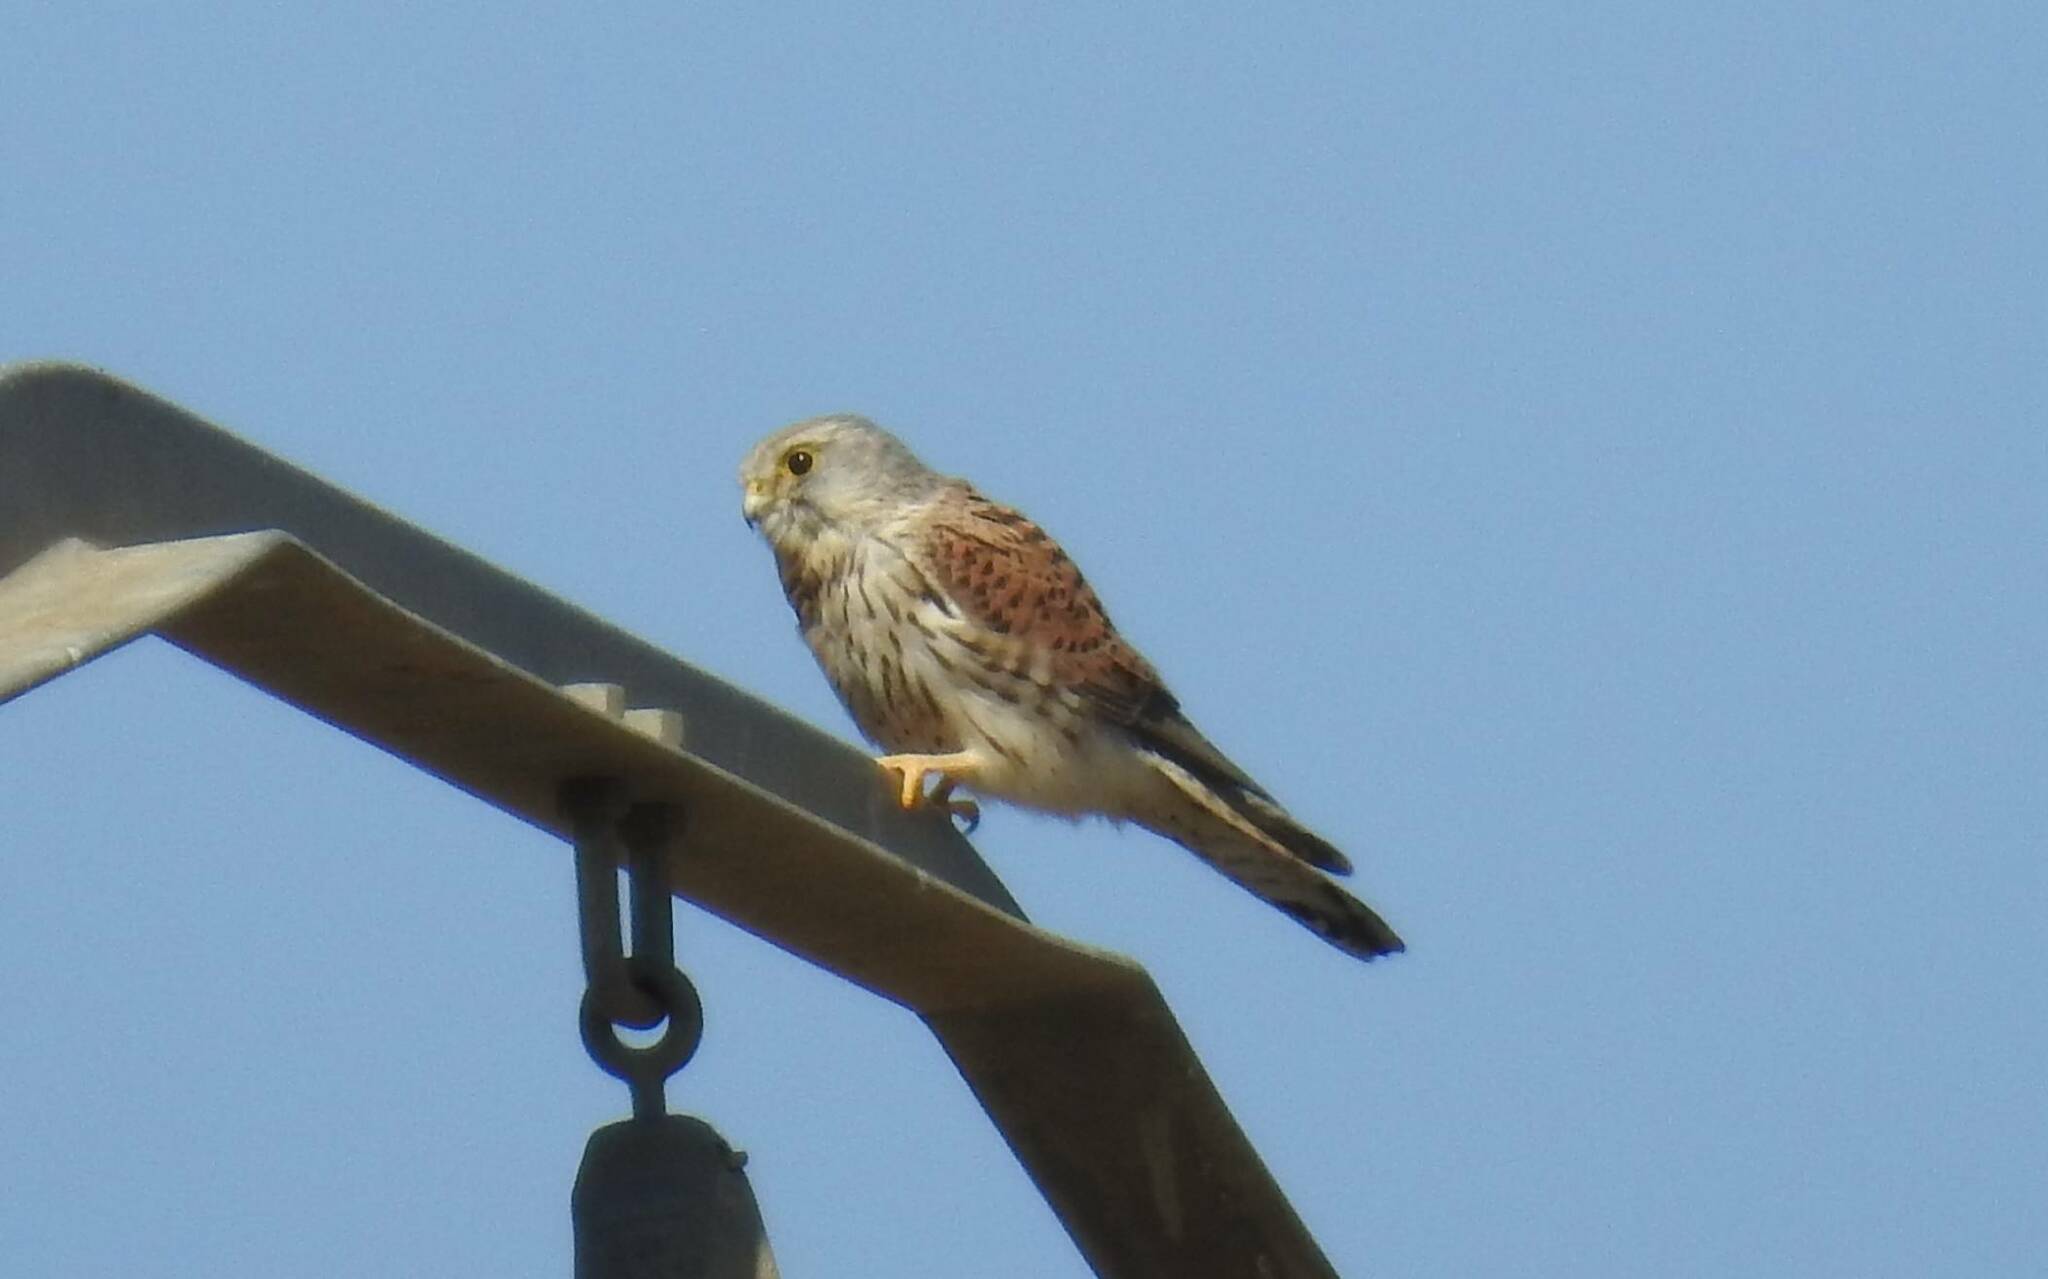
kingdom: Animalia
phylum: Chordata
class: Aves
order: Falconiformes
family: Falconidae
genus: Falco
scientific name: Falco tinnunculus
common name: Common kestrel
